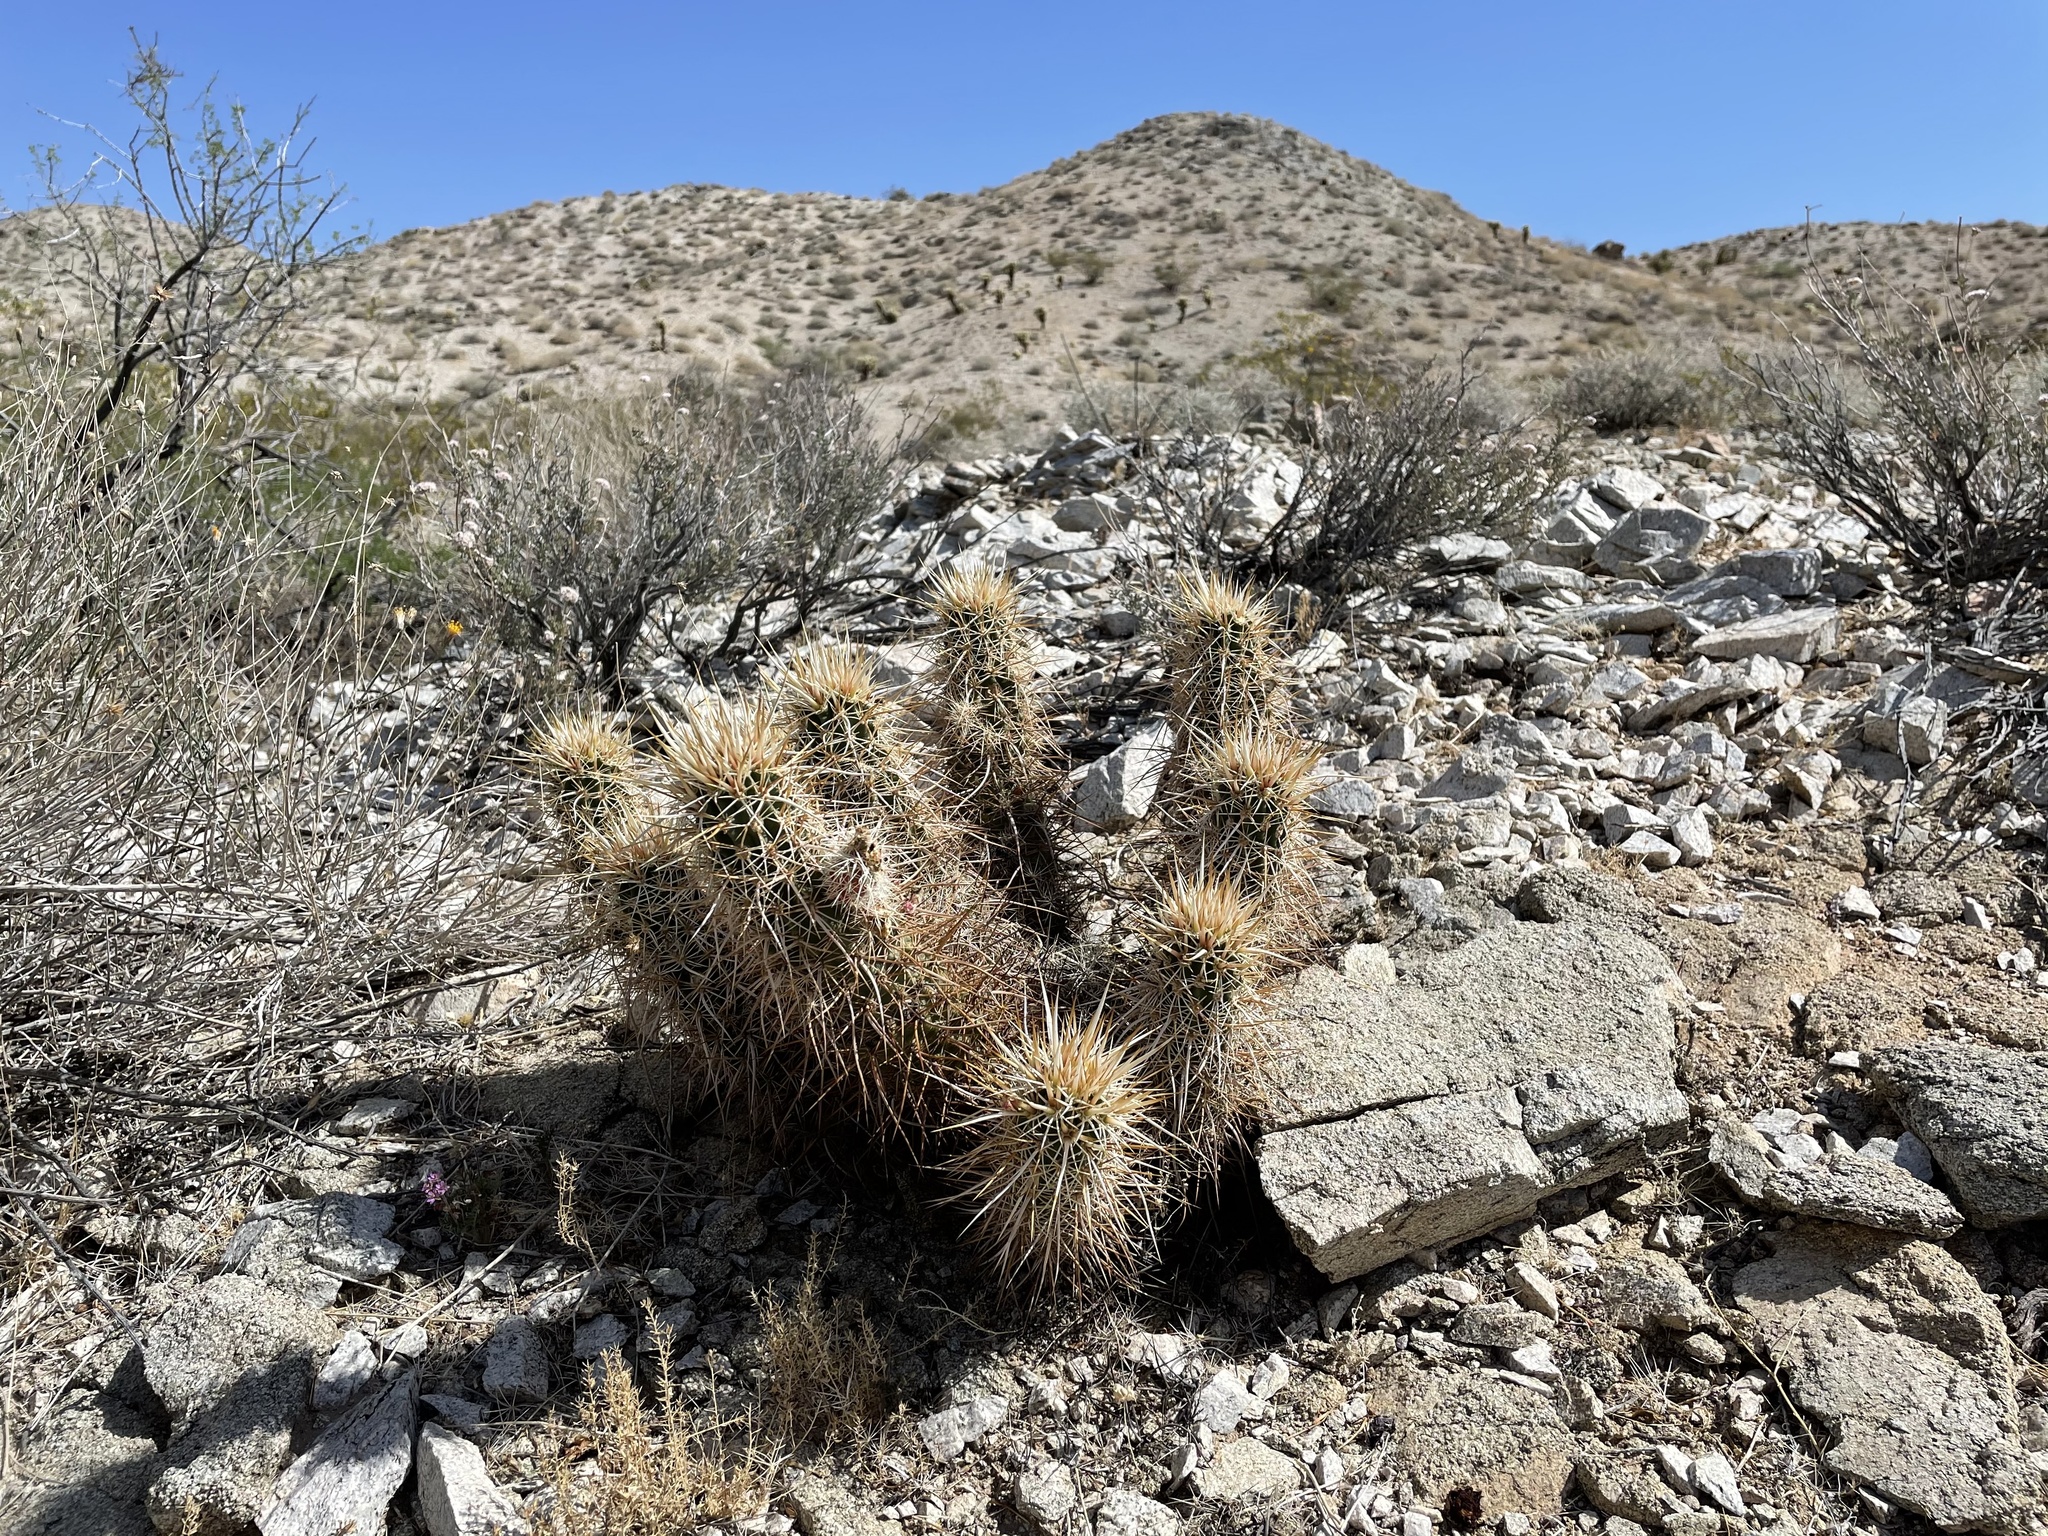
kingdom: Plantae
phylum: Tracheophyta
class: Magnoliopsida
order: Caryophyllales
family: Cactaceae
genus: Echinocereus
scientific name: Echinocereus engelmannii
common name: Engelmann's hedgehog cactus
